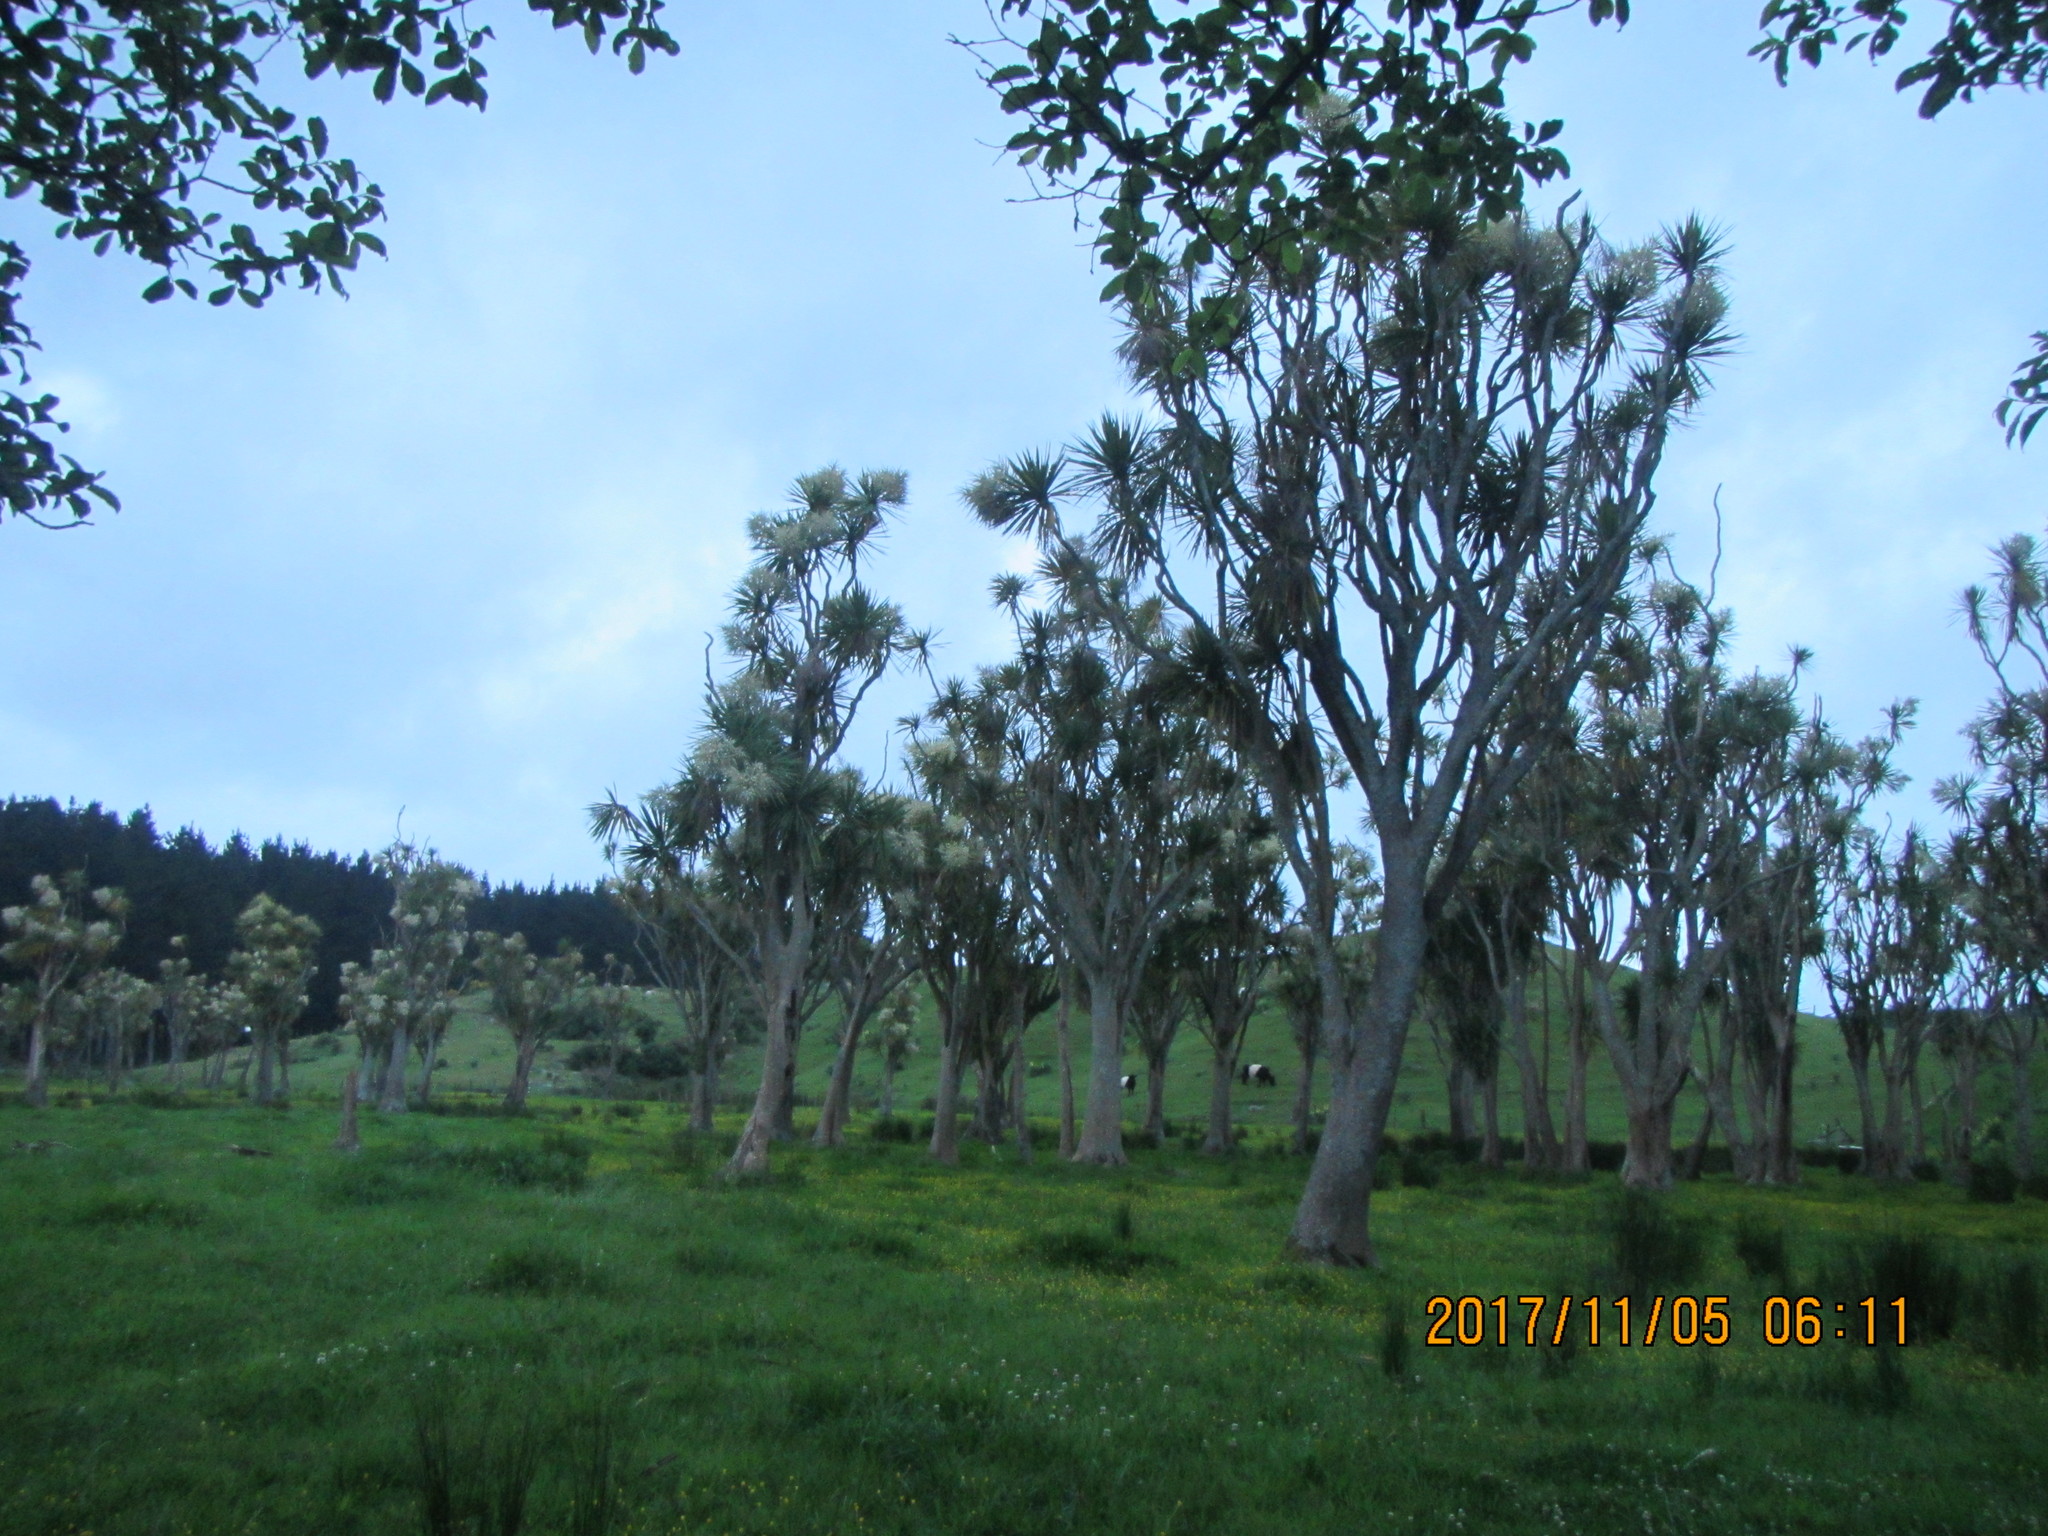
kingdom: Plantae
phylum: Tracheophyta
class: Liliopsida
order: Asparagales
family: Asparagaceae
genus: Cordyline
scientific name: Cordyline australis
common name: Cabbage-palm
